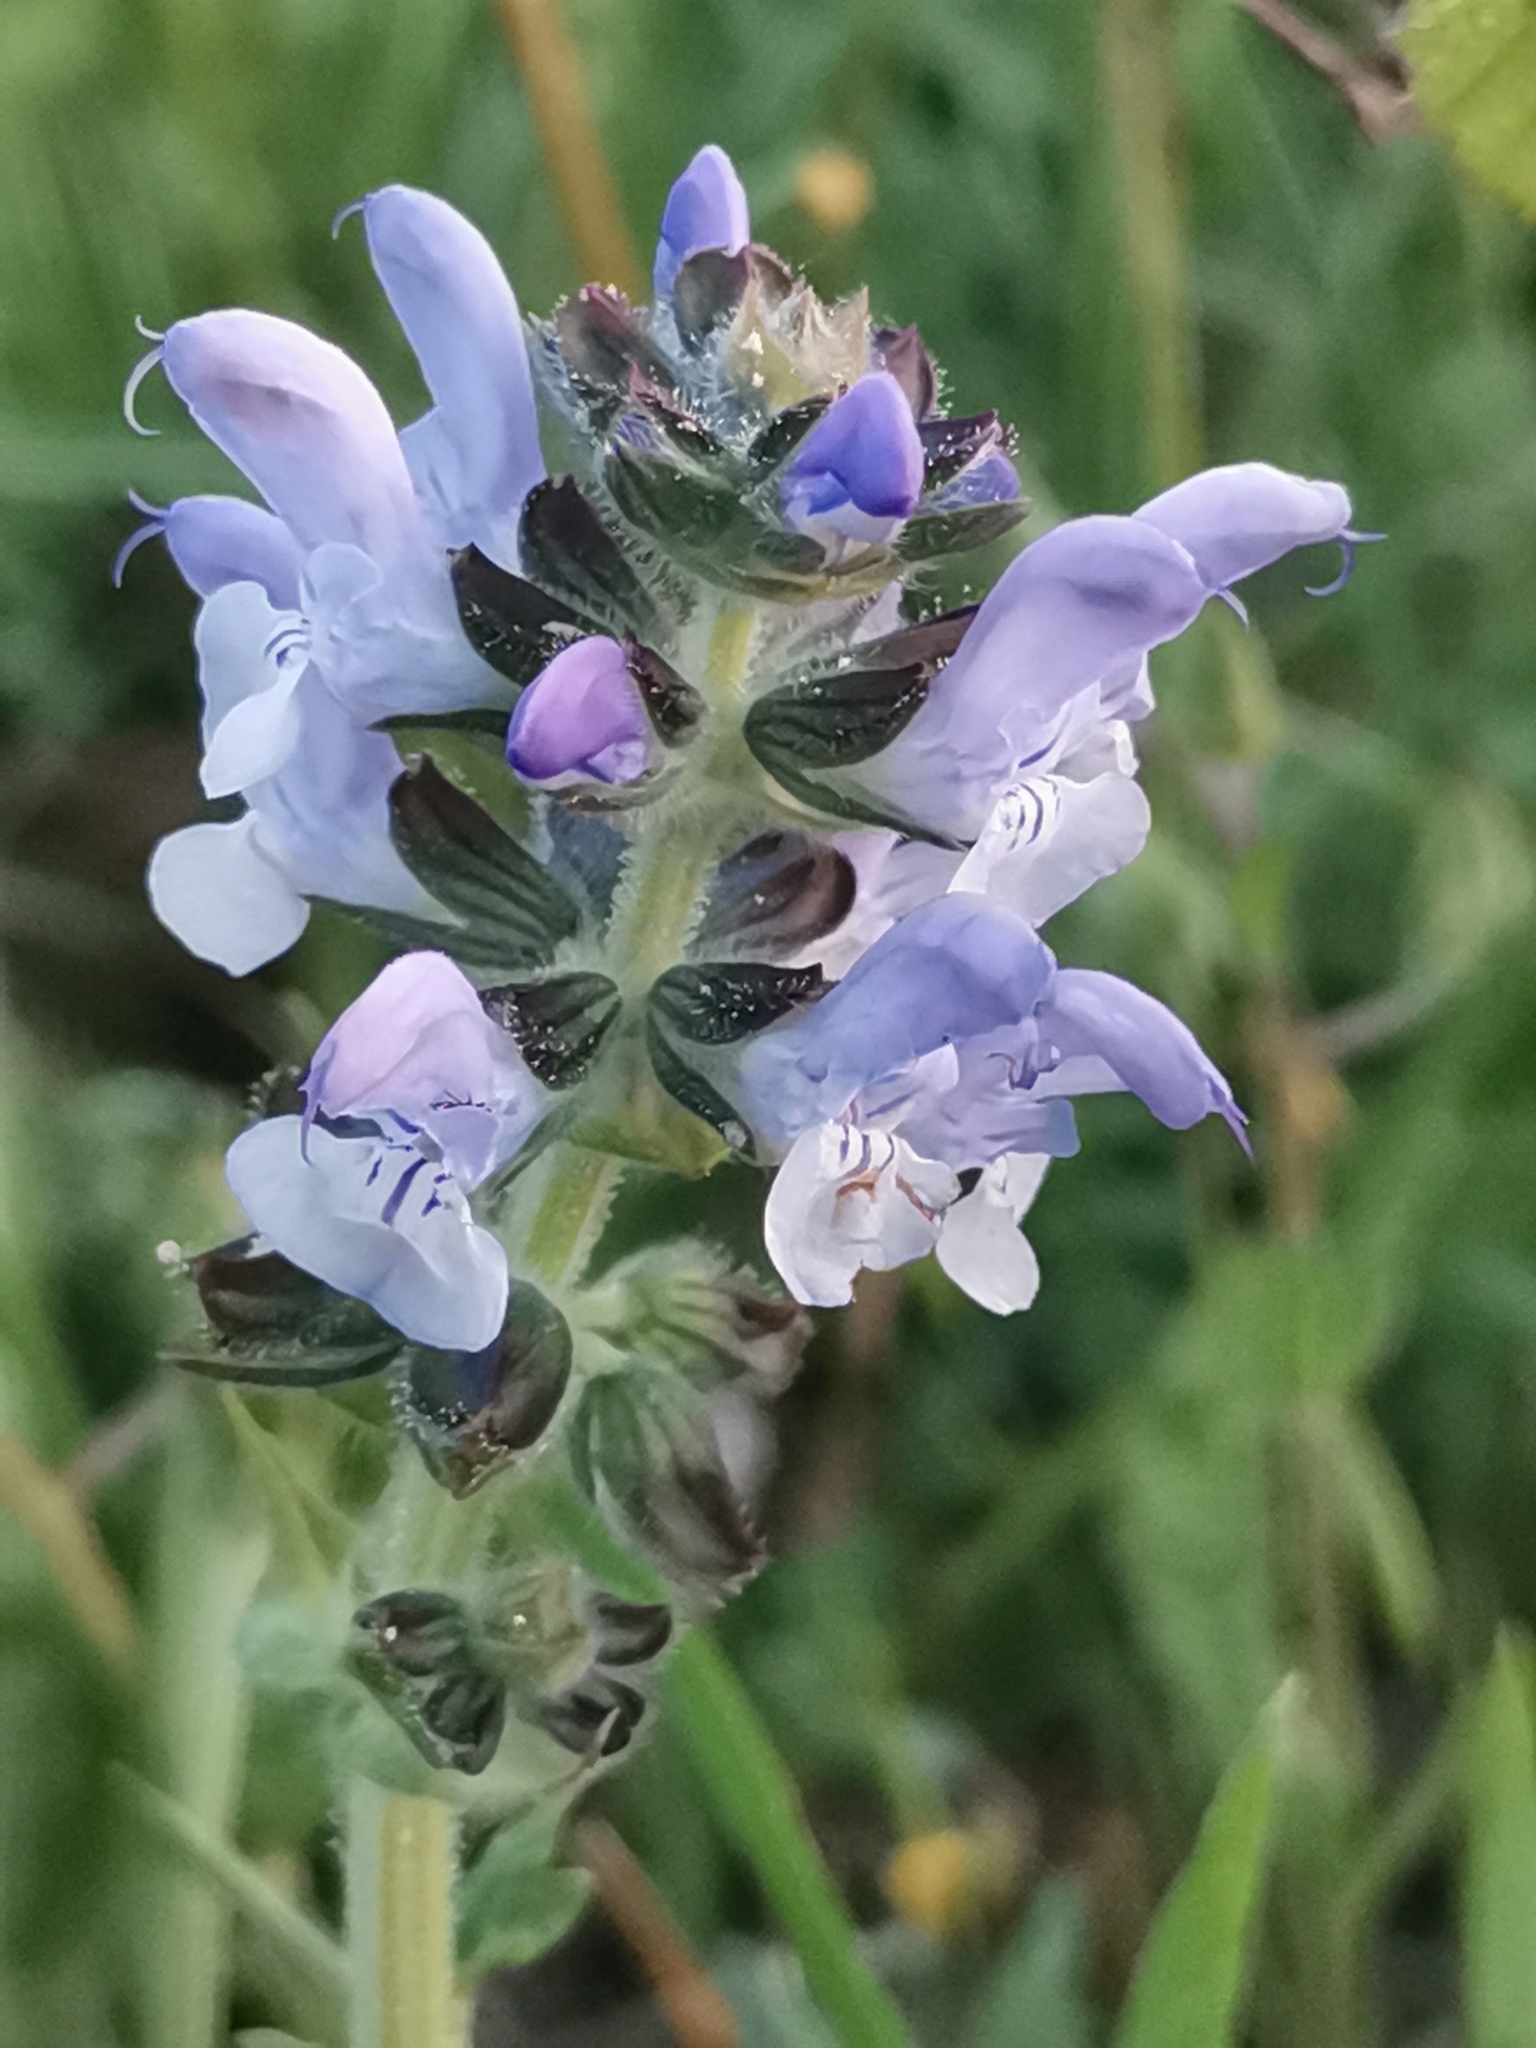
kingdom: Plantae
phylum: Tracheophyta
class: Magnoliopsida
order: Lamiales
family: Lamiaceae
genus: Salvia
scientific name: Salvia clandestina
